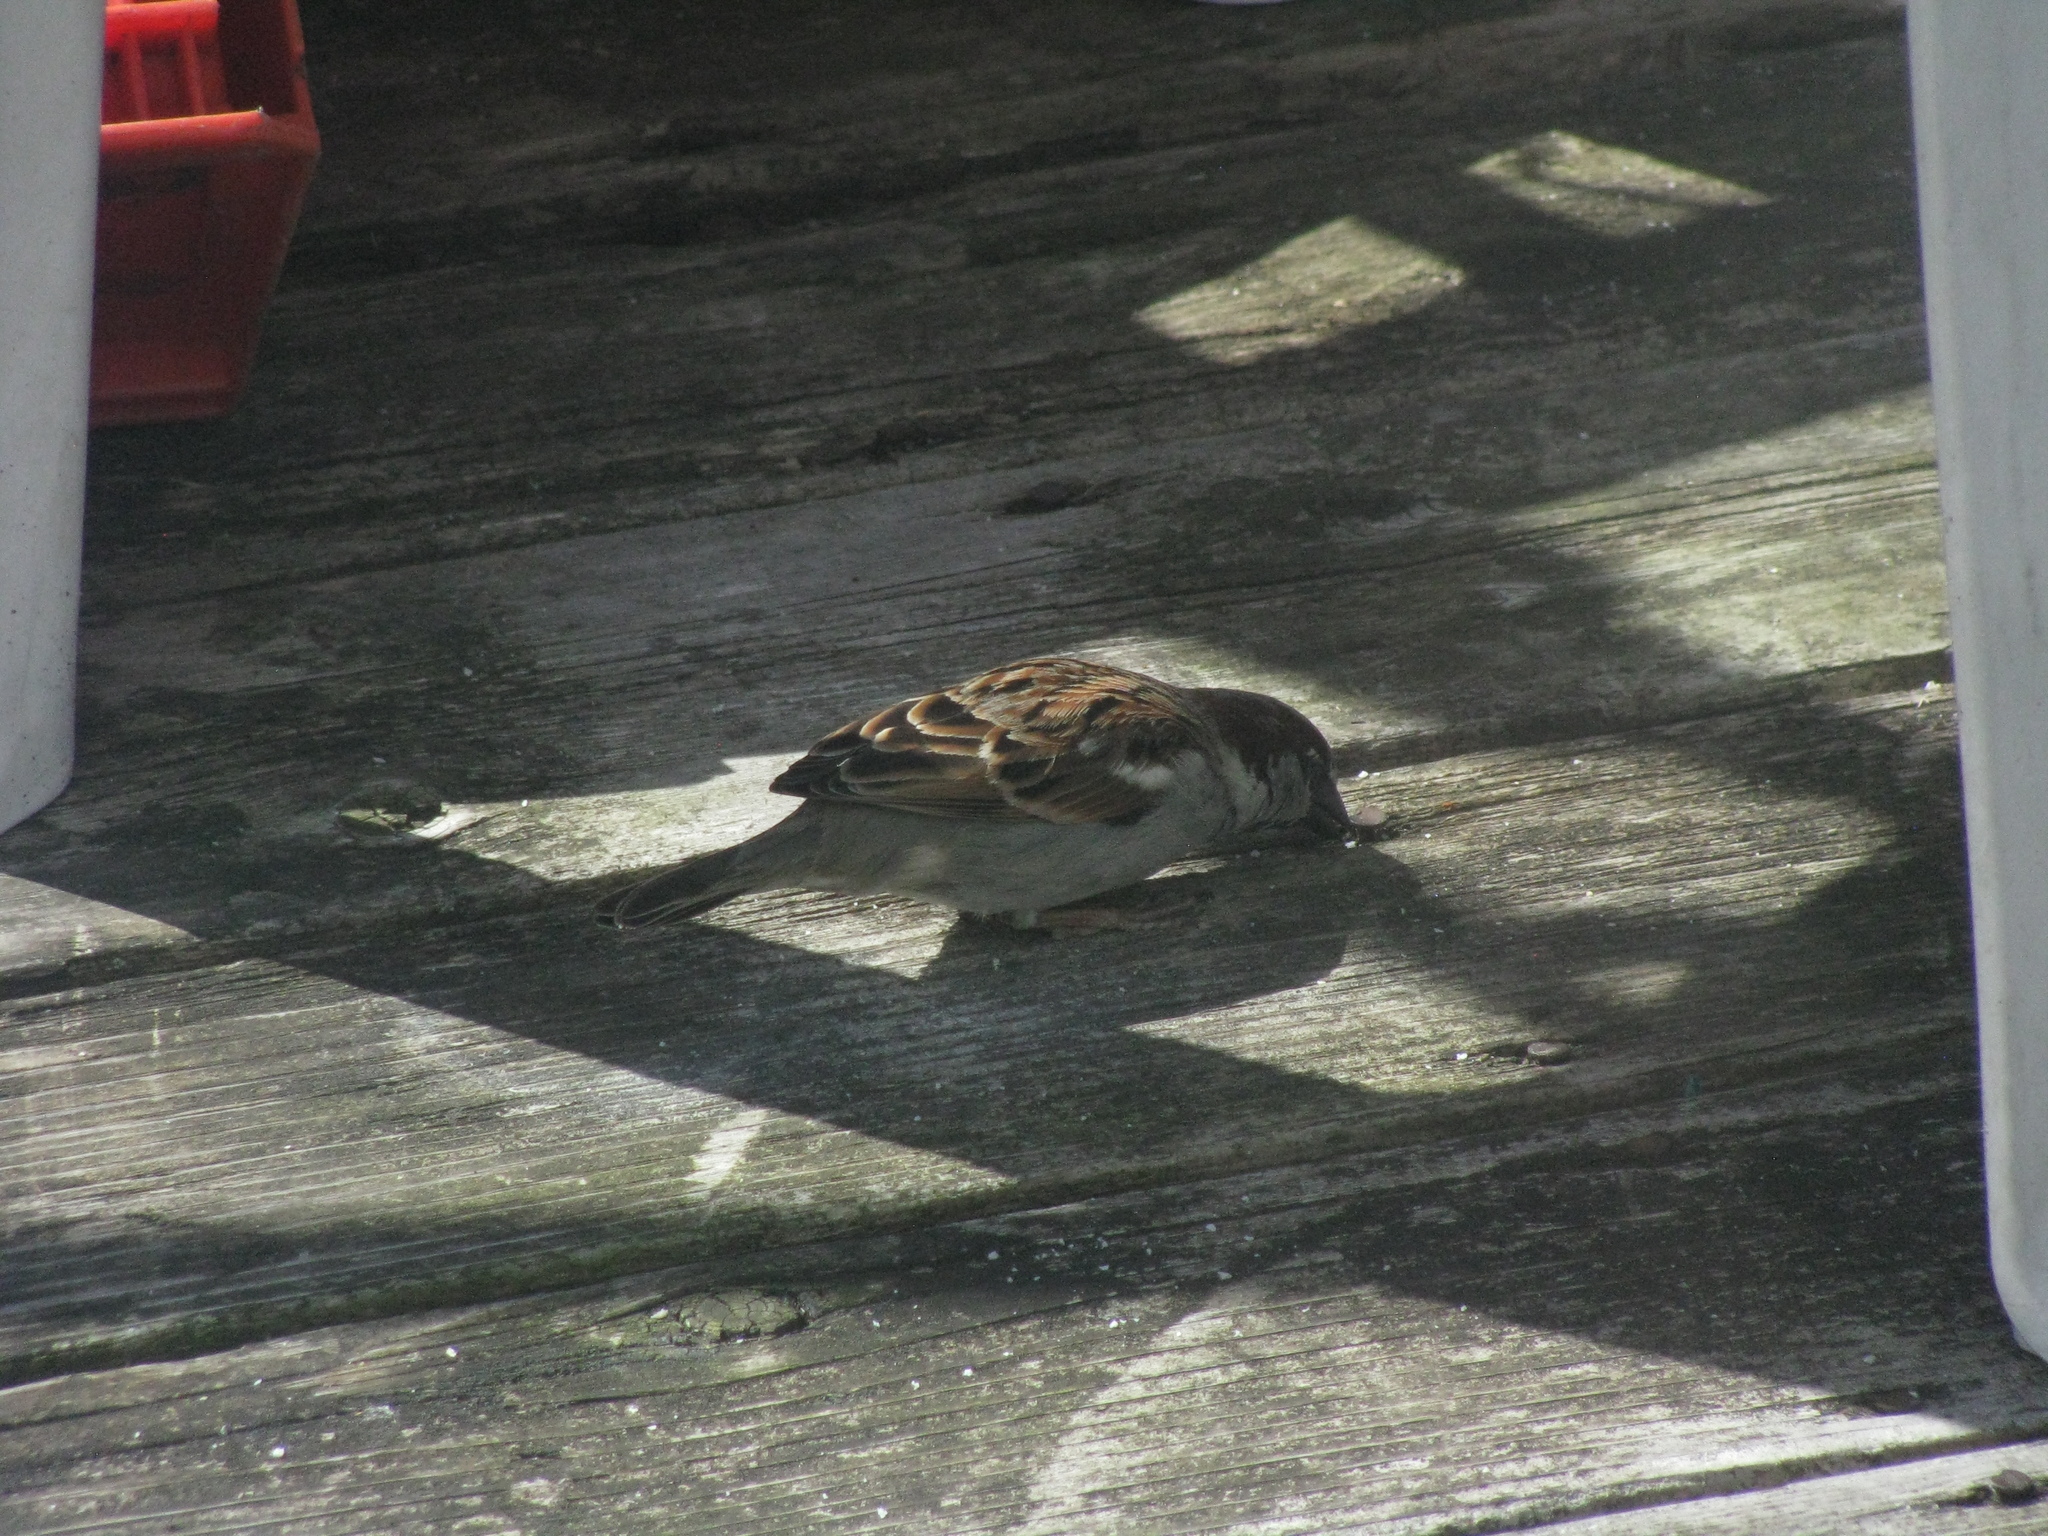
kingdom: Animalia
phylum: Chordata
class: Aves
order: Passeriformes
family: Passeridae
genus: Passer
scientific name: Passer domesticus
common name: House sparrow
